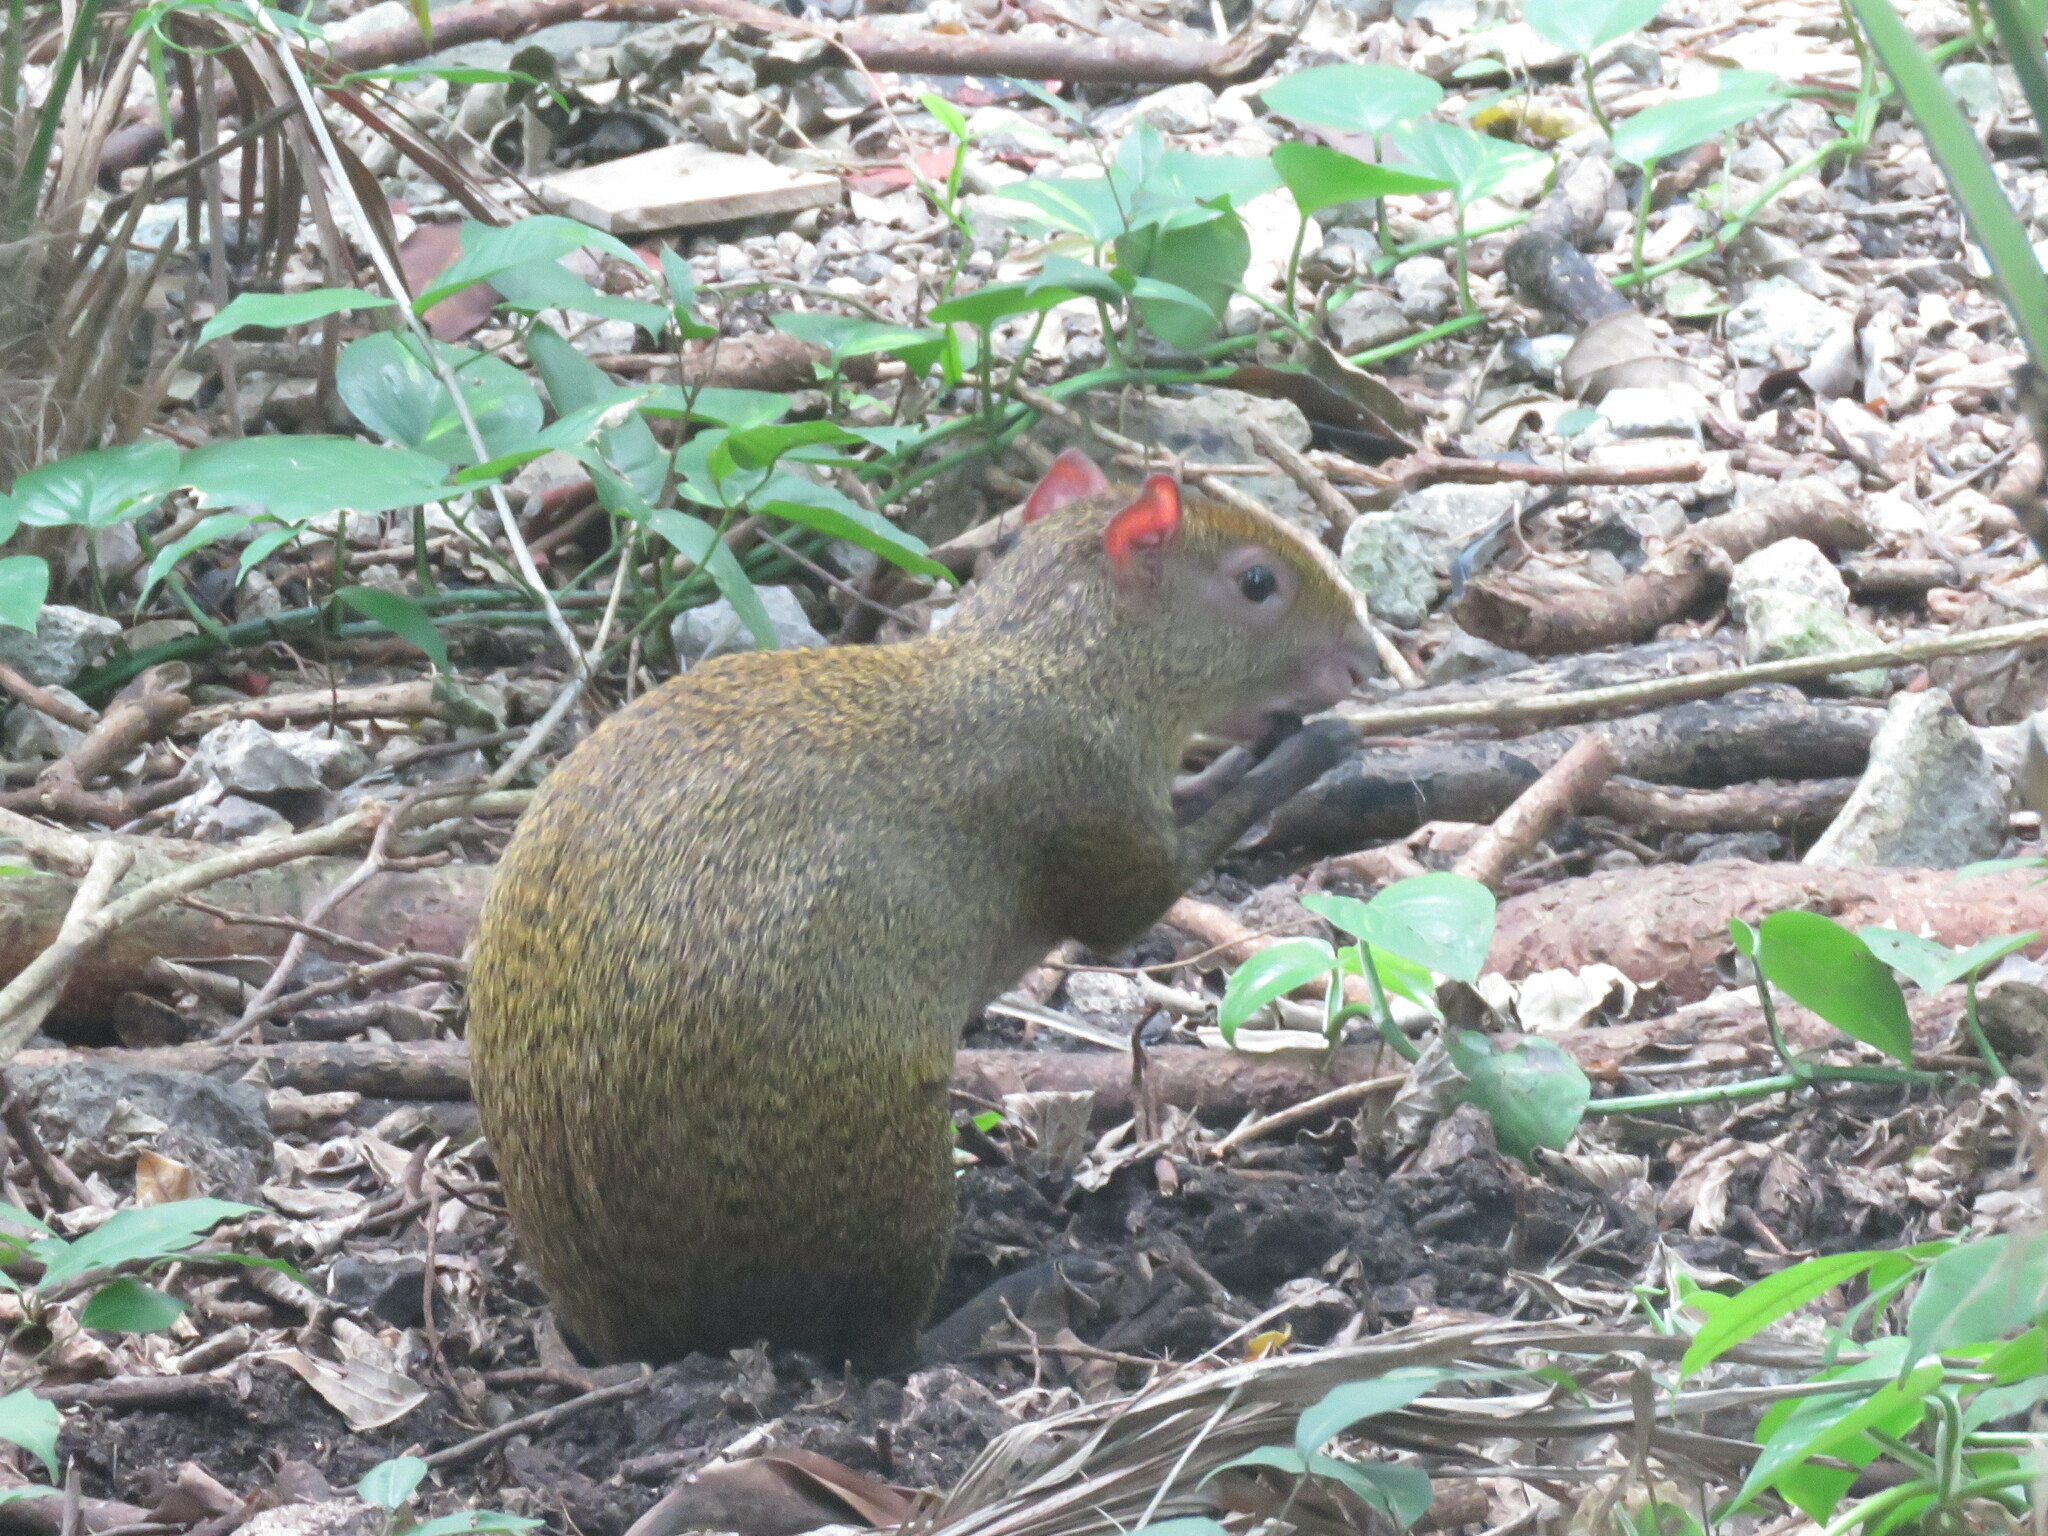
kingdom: Animalia
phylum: Chordata
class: Mammalia
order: Rodentia
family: Dasyproctidae
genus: Dasyprocta
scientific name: Dasyprocta punctata
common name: Central american agouti
